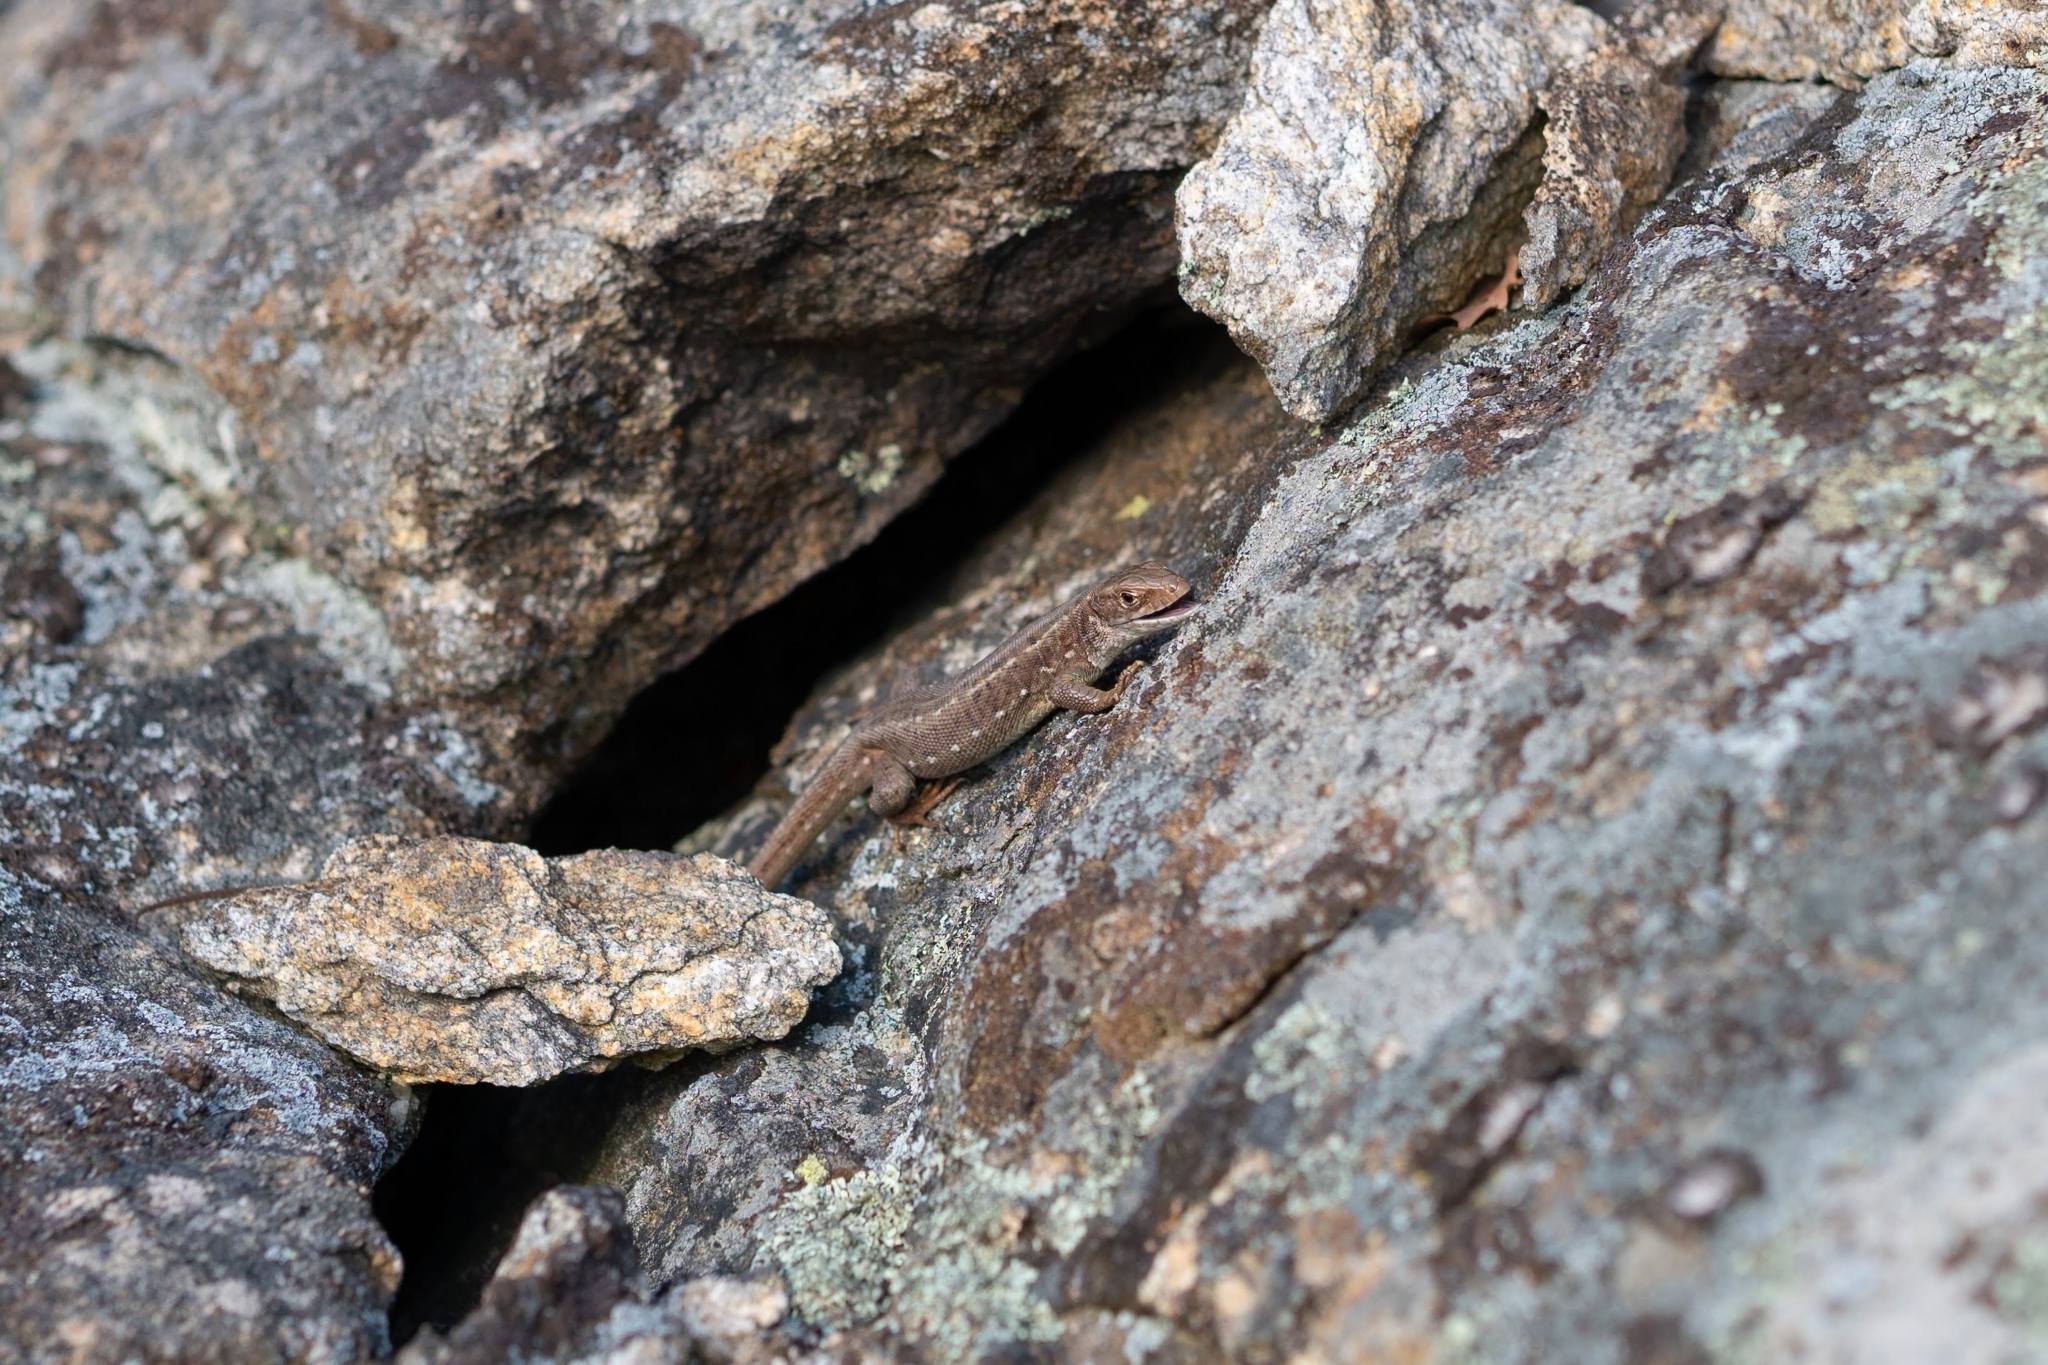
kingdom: Animalia
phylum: Chordata
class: Squamata
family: Lacertidae
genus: Lacerta
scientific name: Lacerta viridis
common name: European green lizard
